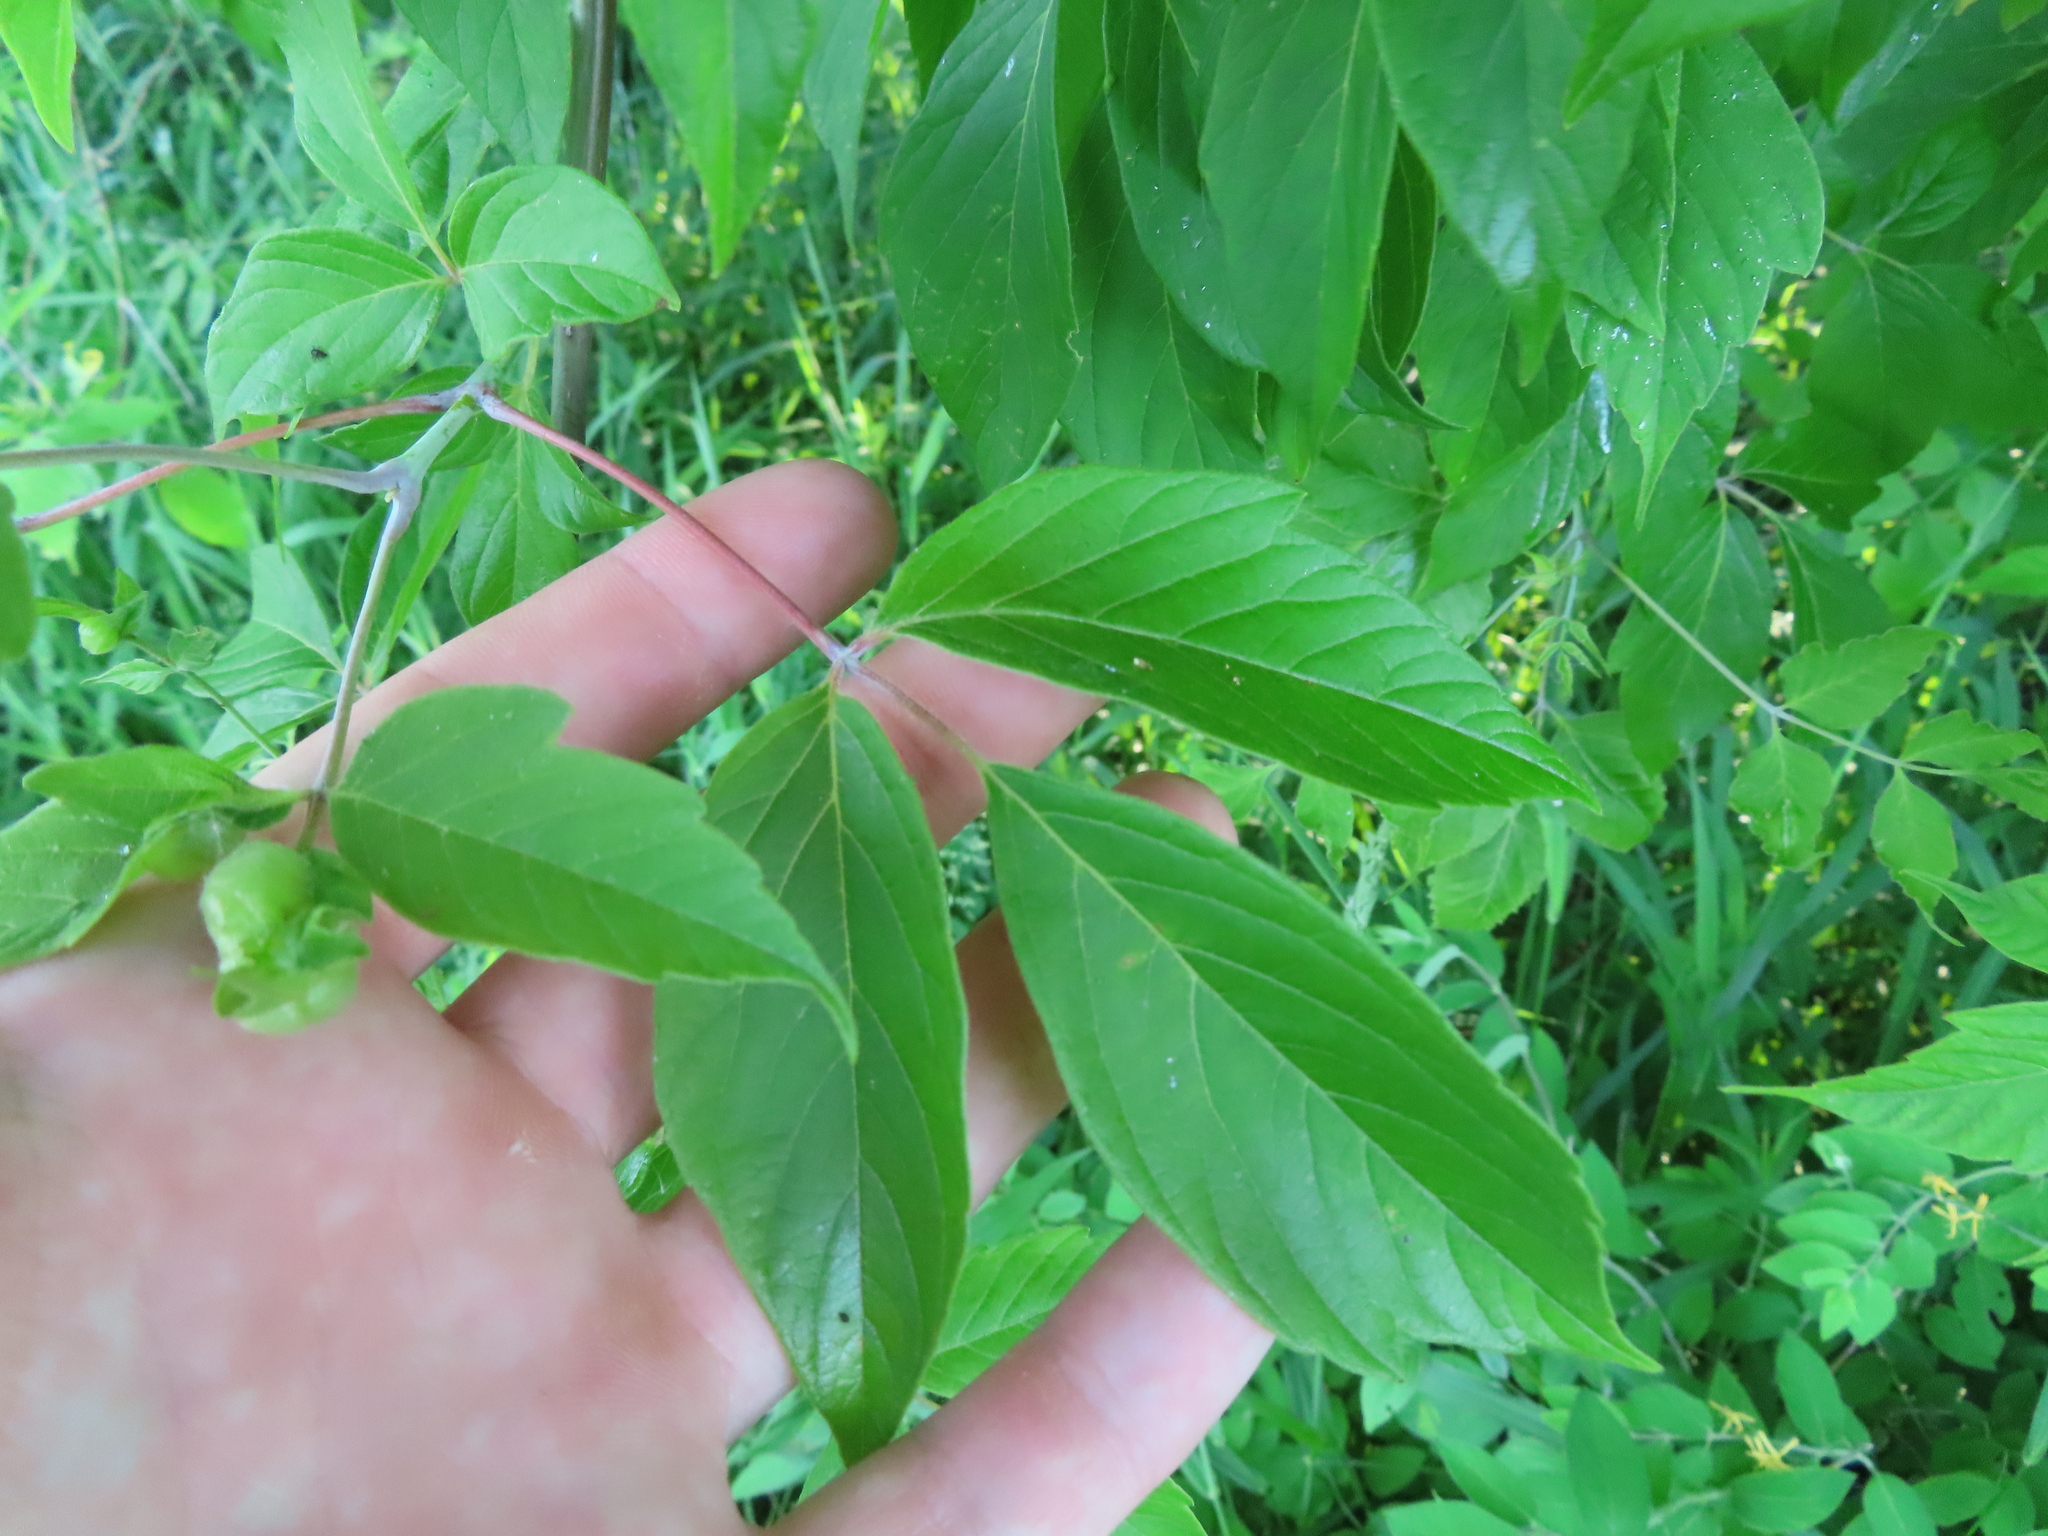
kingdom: Plantae
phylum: Tracheophyta
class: Magnoliopsida
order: Sapindales
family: Sapindaceae
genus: Acer
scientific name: Acer negundo
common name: Ashleaf maple
